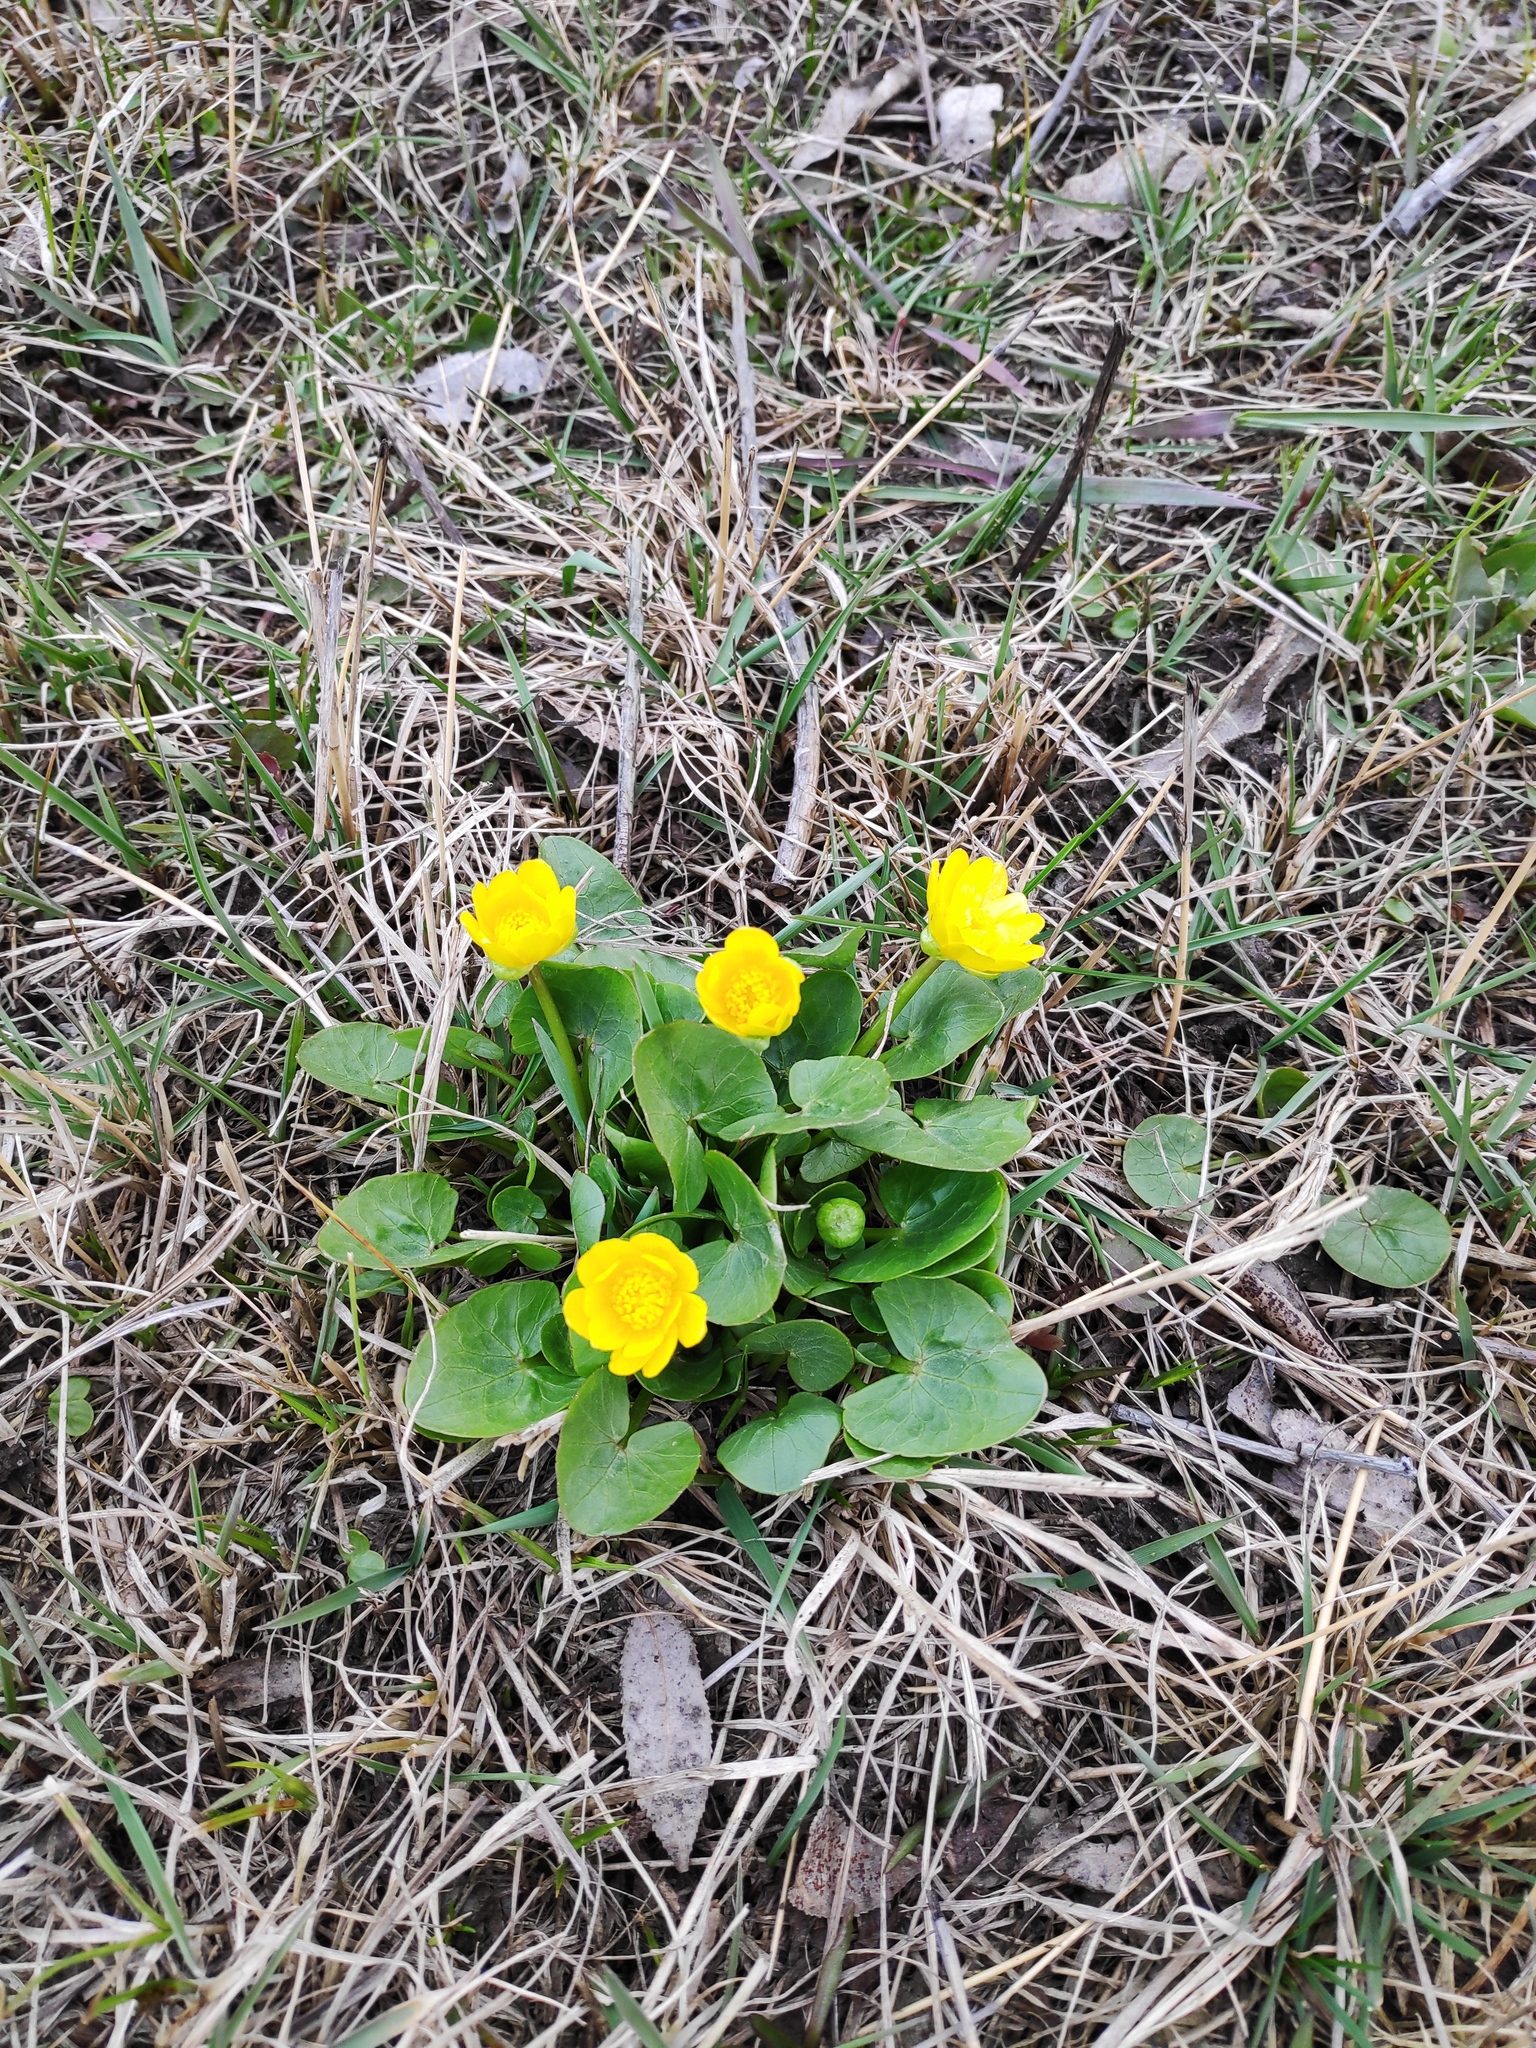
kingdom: Plantae
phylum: Tracheophyta
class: Magnoliopsida
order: Ranunculales
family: Ranunculaceae
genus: Ficaria
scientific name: Ficaria verna
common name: Lesser celandine
